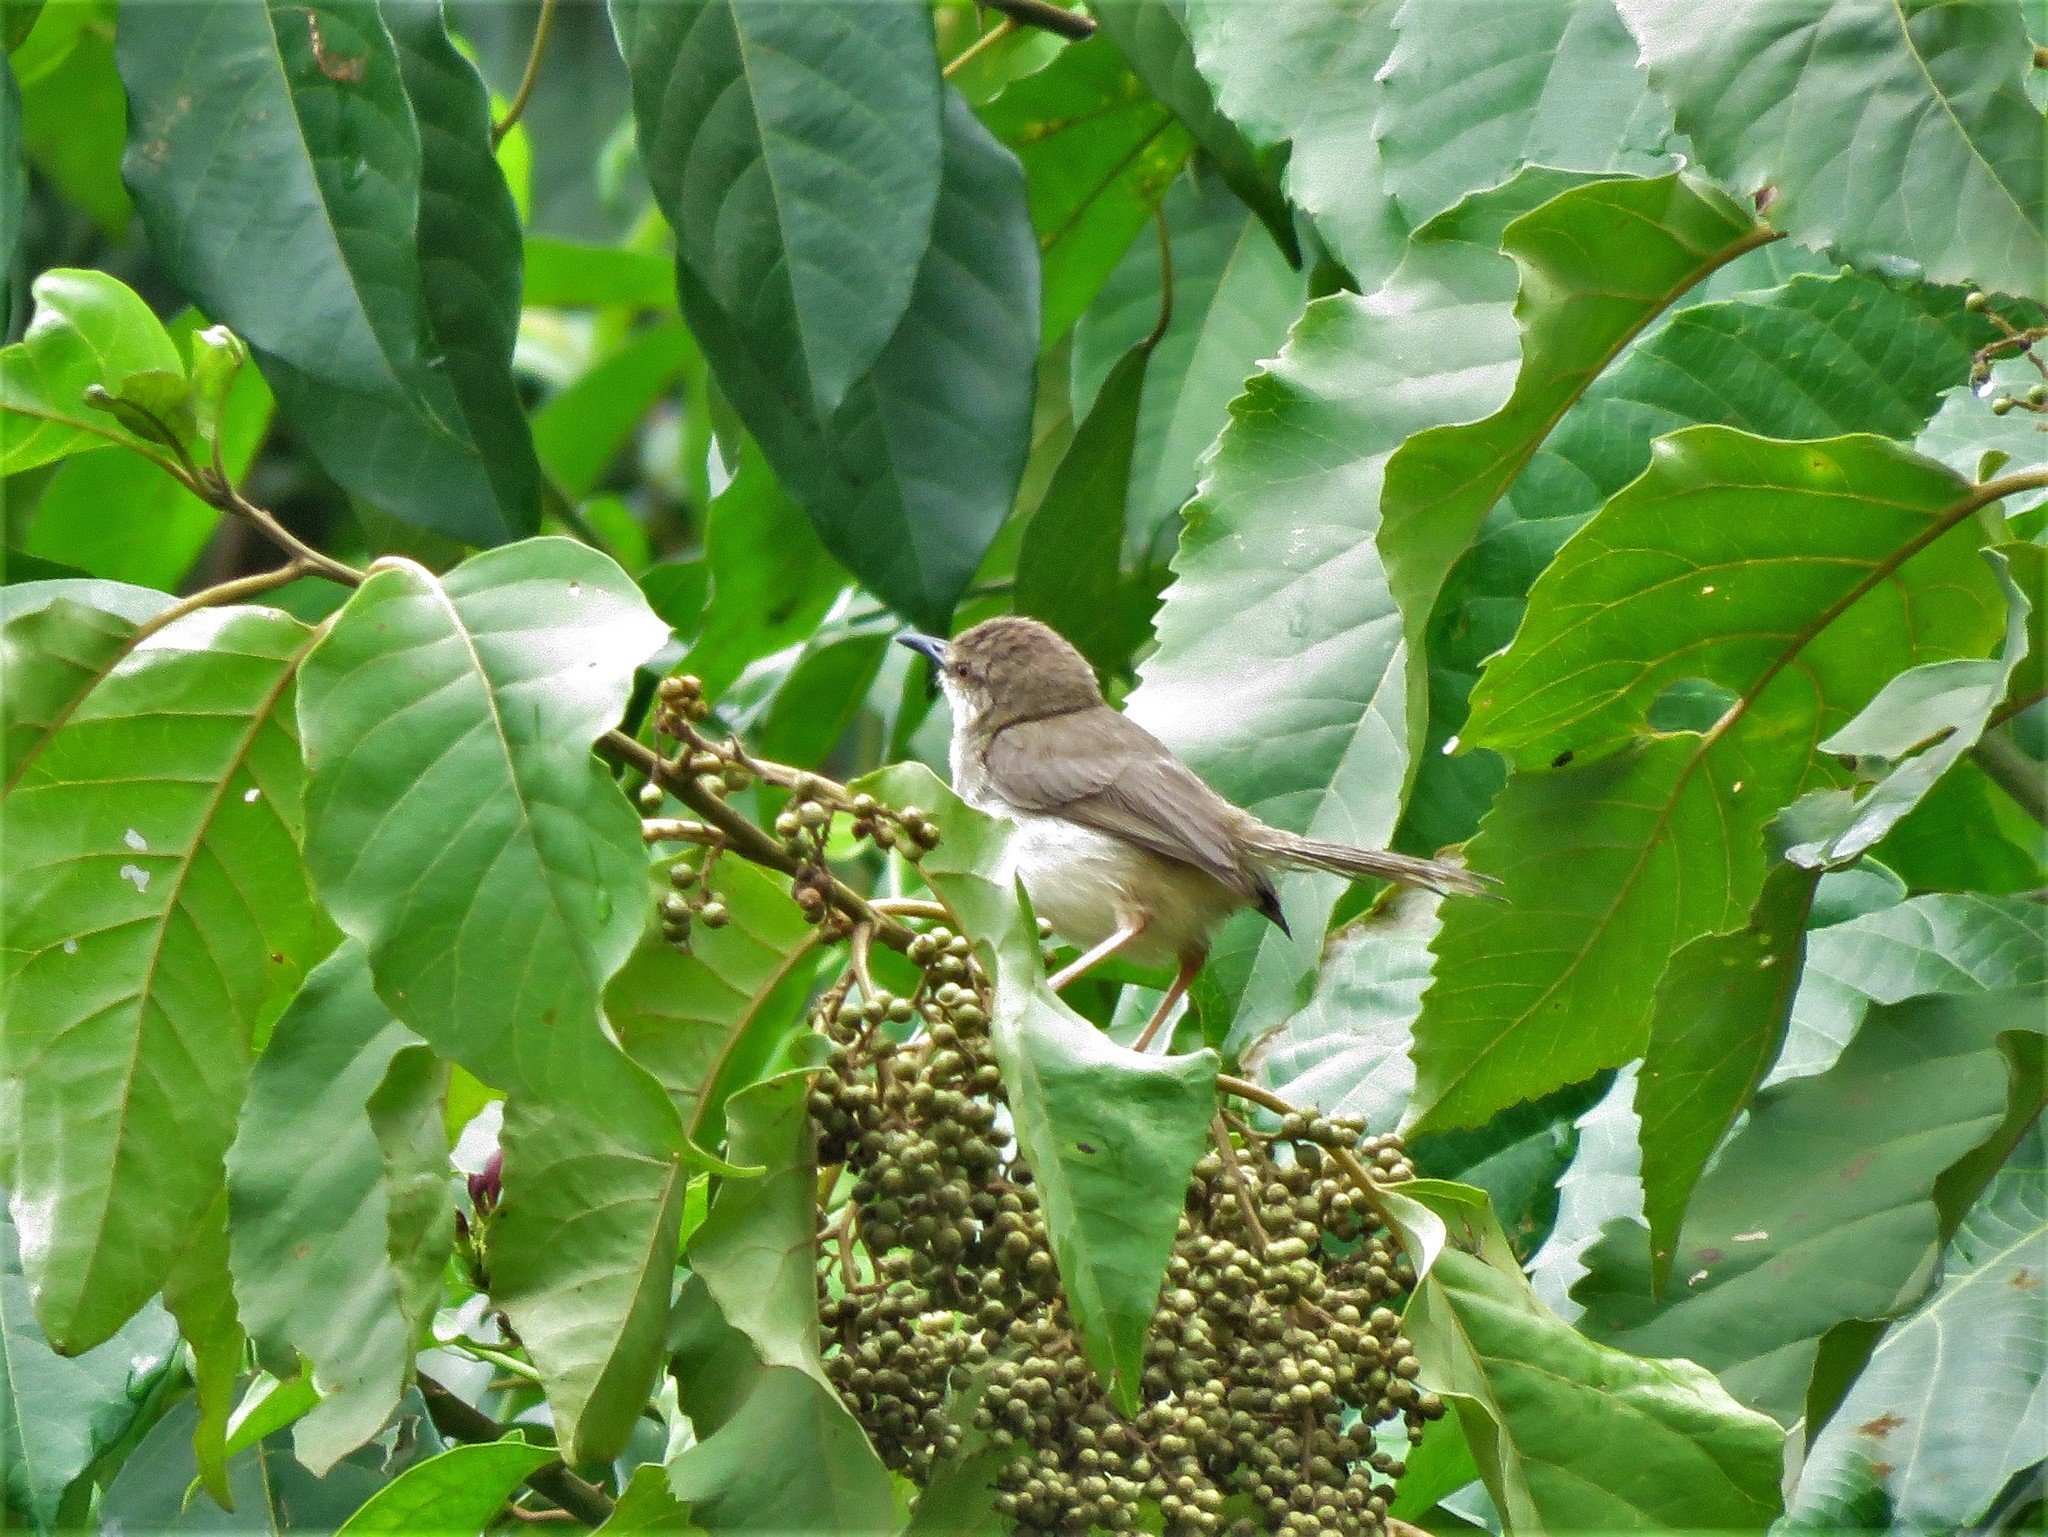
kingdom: Animalia
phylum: Chordata
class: Aves
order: Passeriformes
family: Cisticolidae
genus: Prinia
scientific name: Prinia subflava
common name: Tawny-flanked prinia
